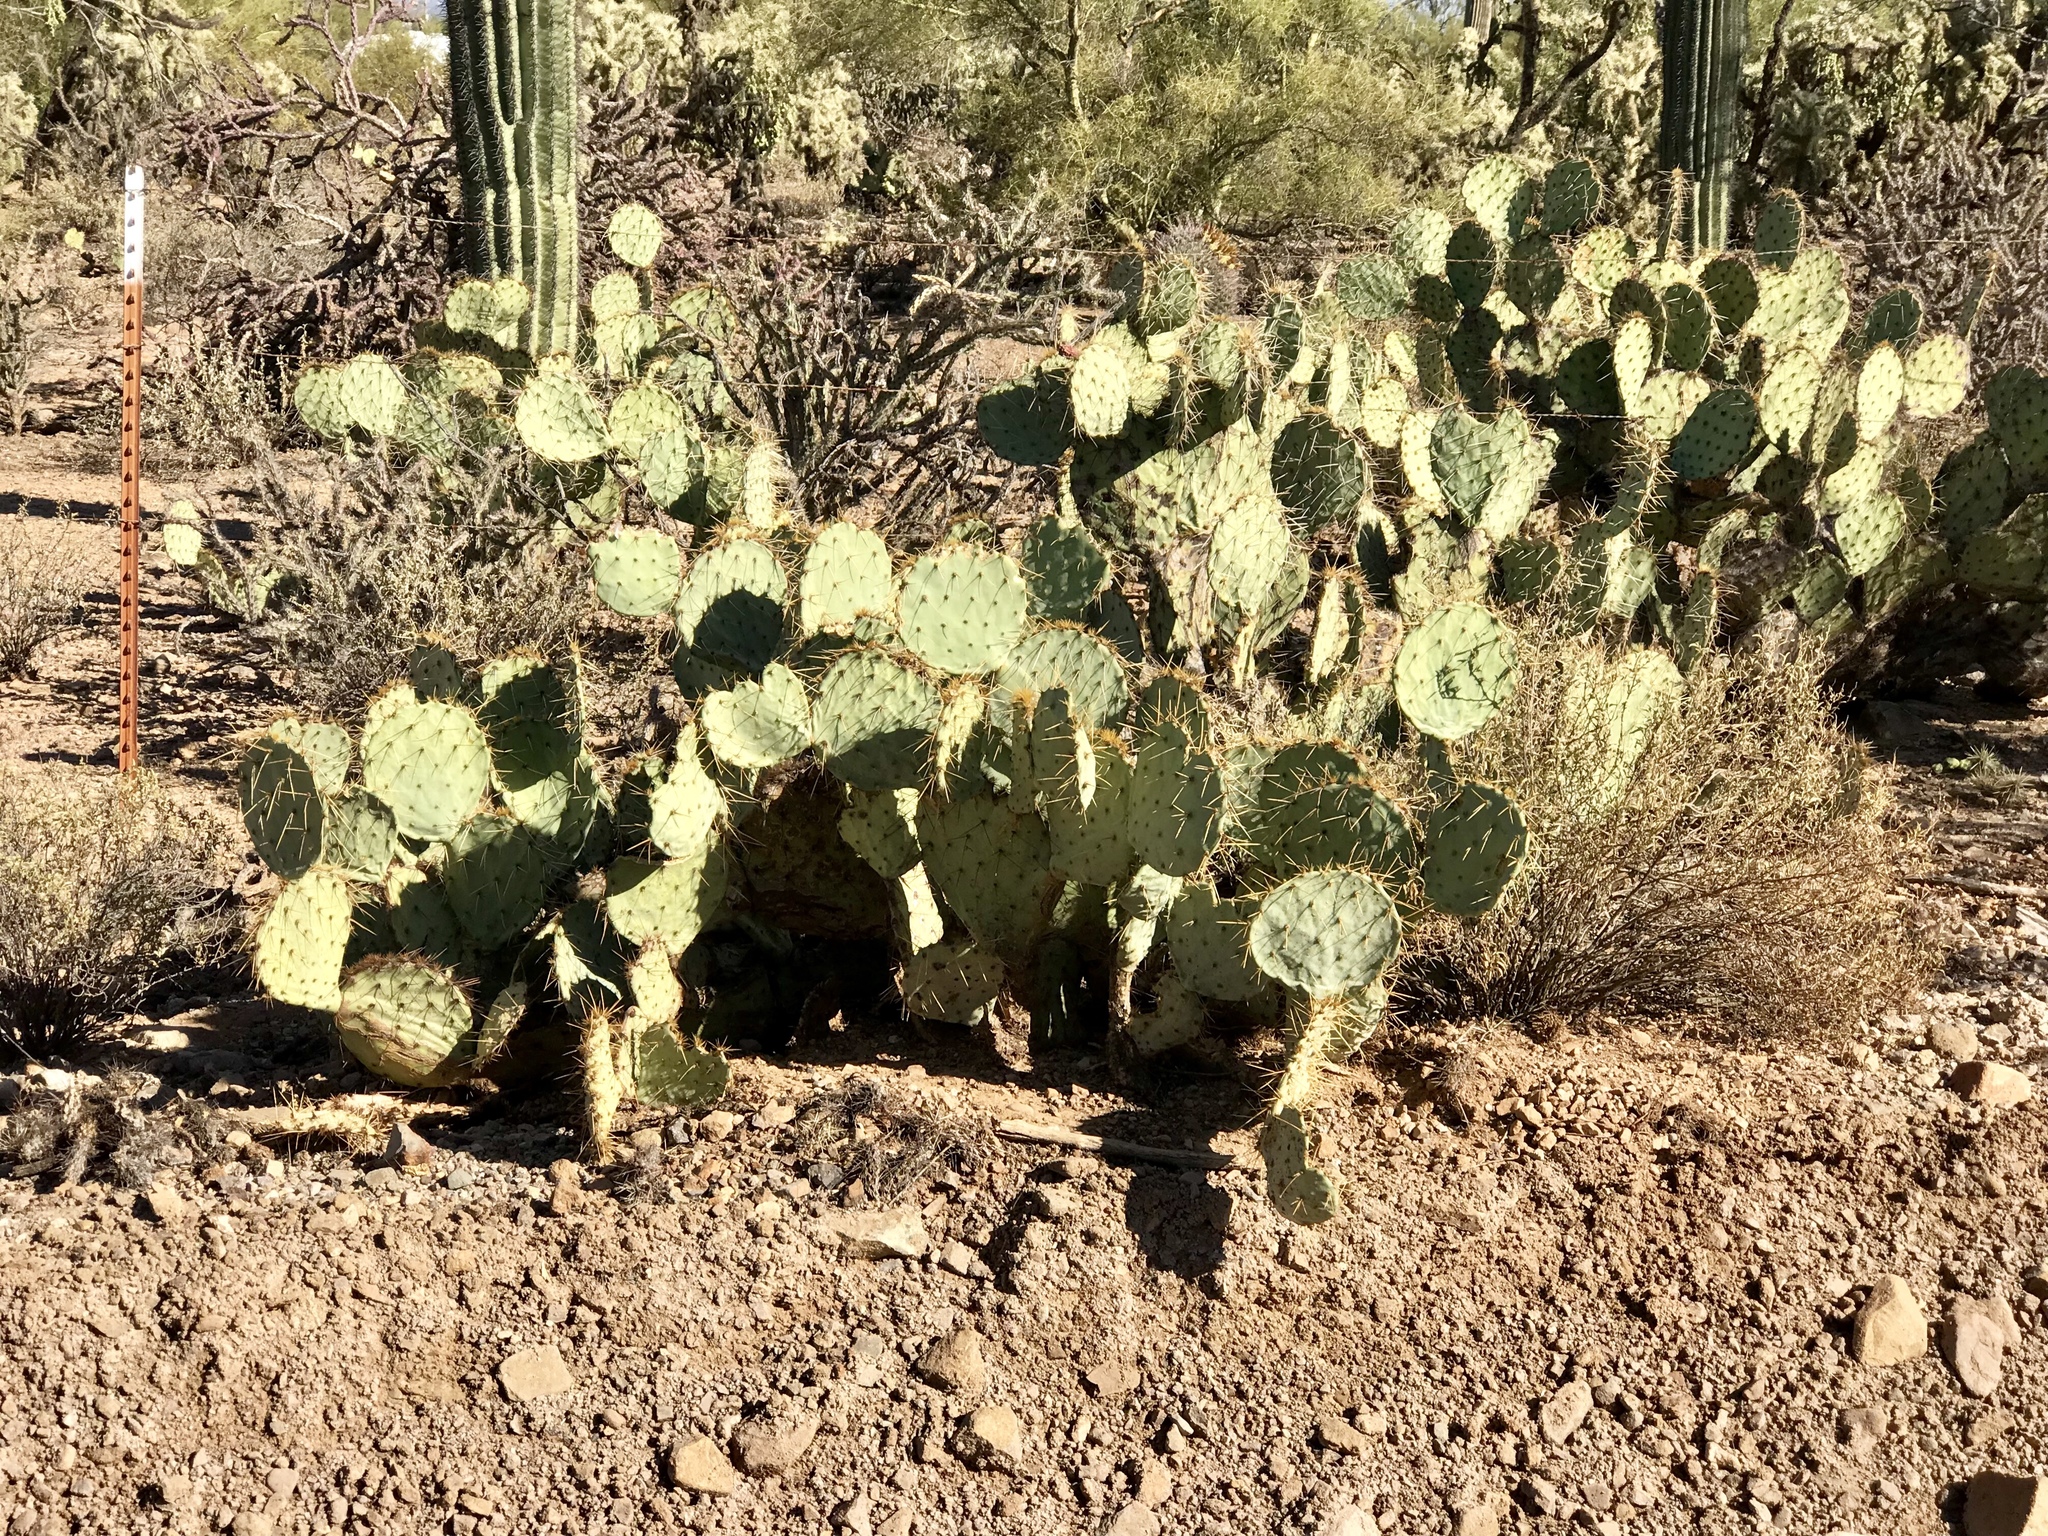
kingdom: Plantae
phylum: Tracheophyta
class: Magnoliopsida
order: Caryophyllales
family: Cactaceae
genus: Opuntia
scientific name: Opuntia phaeacantha
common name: New mexico prickly-pear
